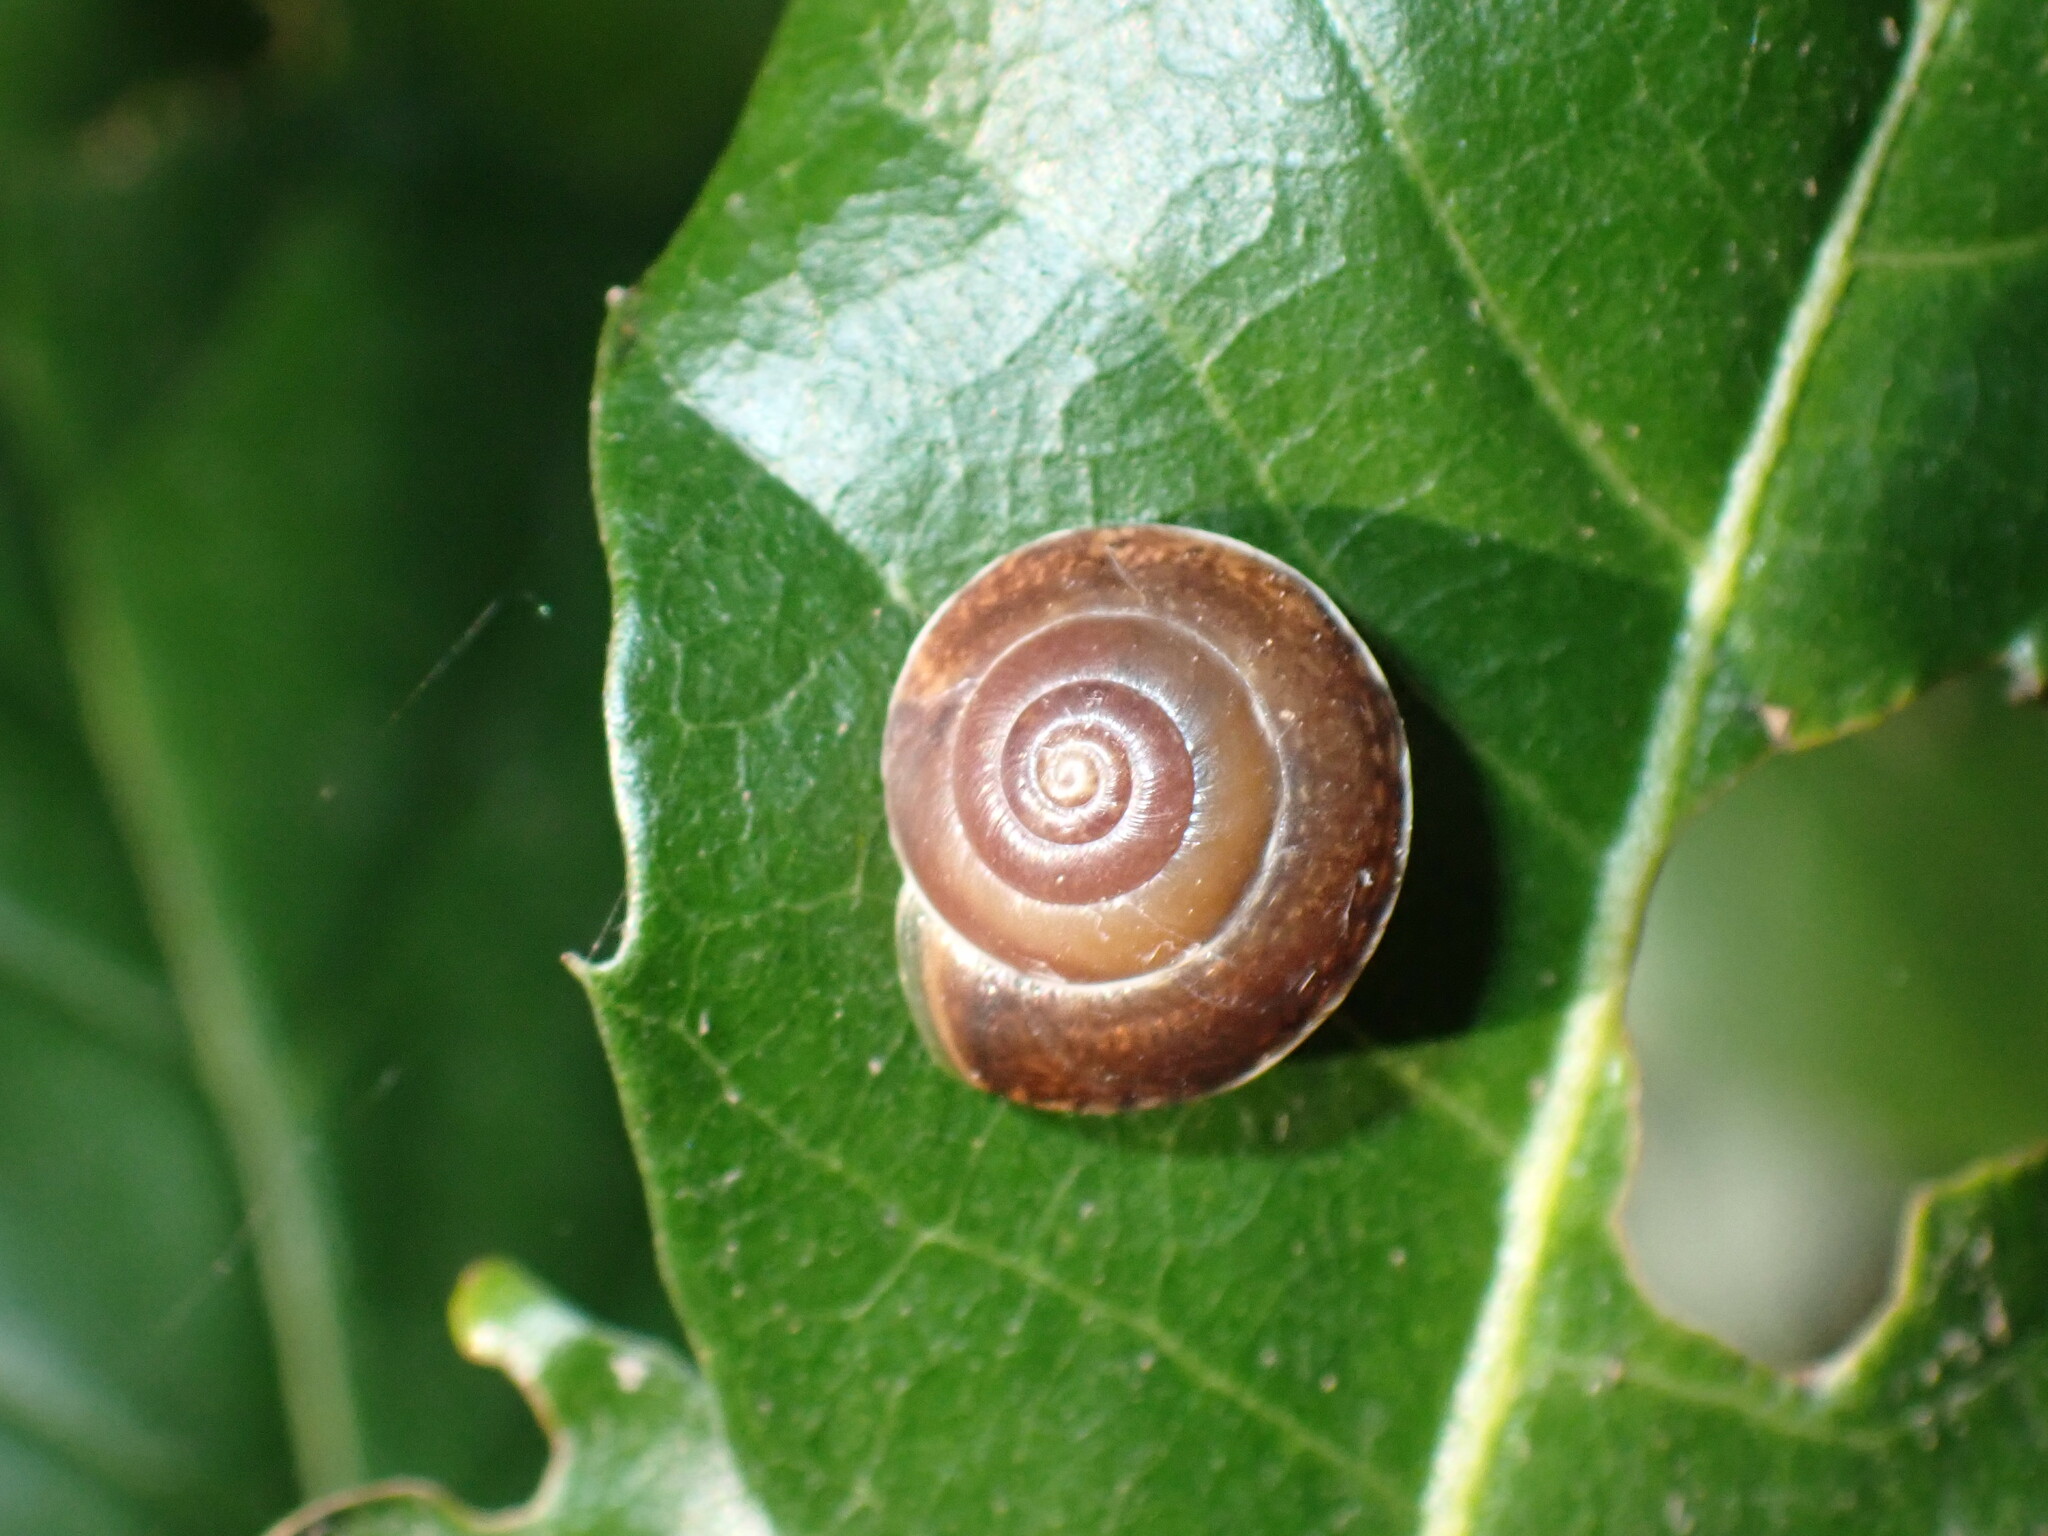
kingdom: Animalia
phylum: Mollusca
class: Gastropoda
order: Stylommatophora
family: Hygromiidae
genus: Hygromia
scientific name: Hygromia cinctella
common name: Girdled snail
